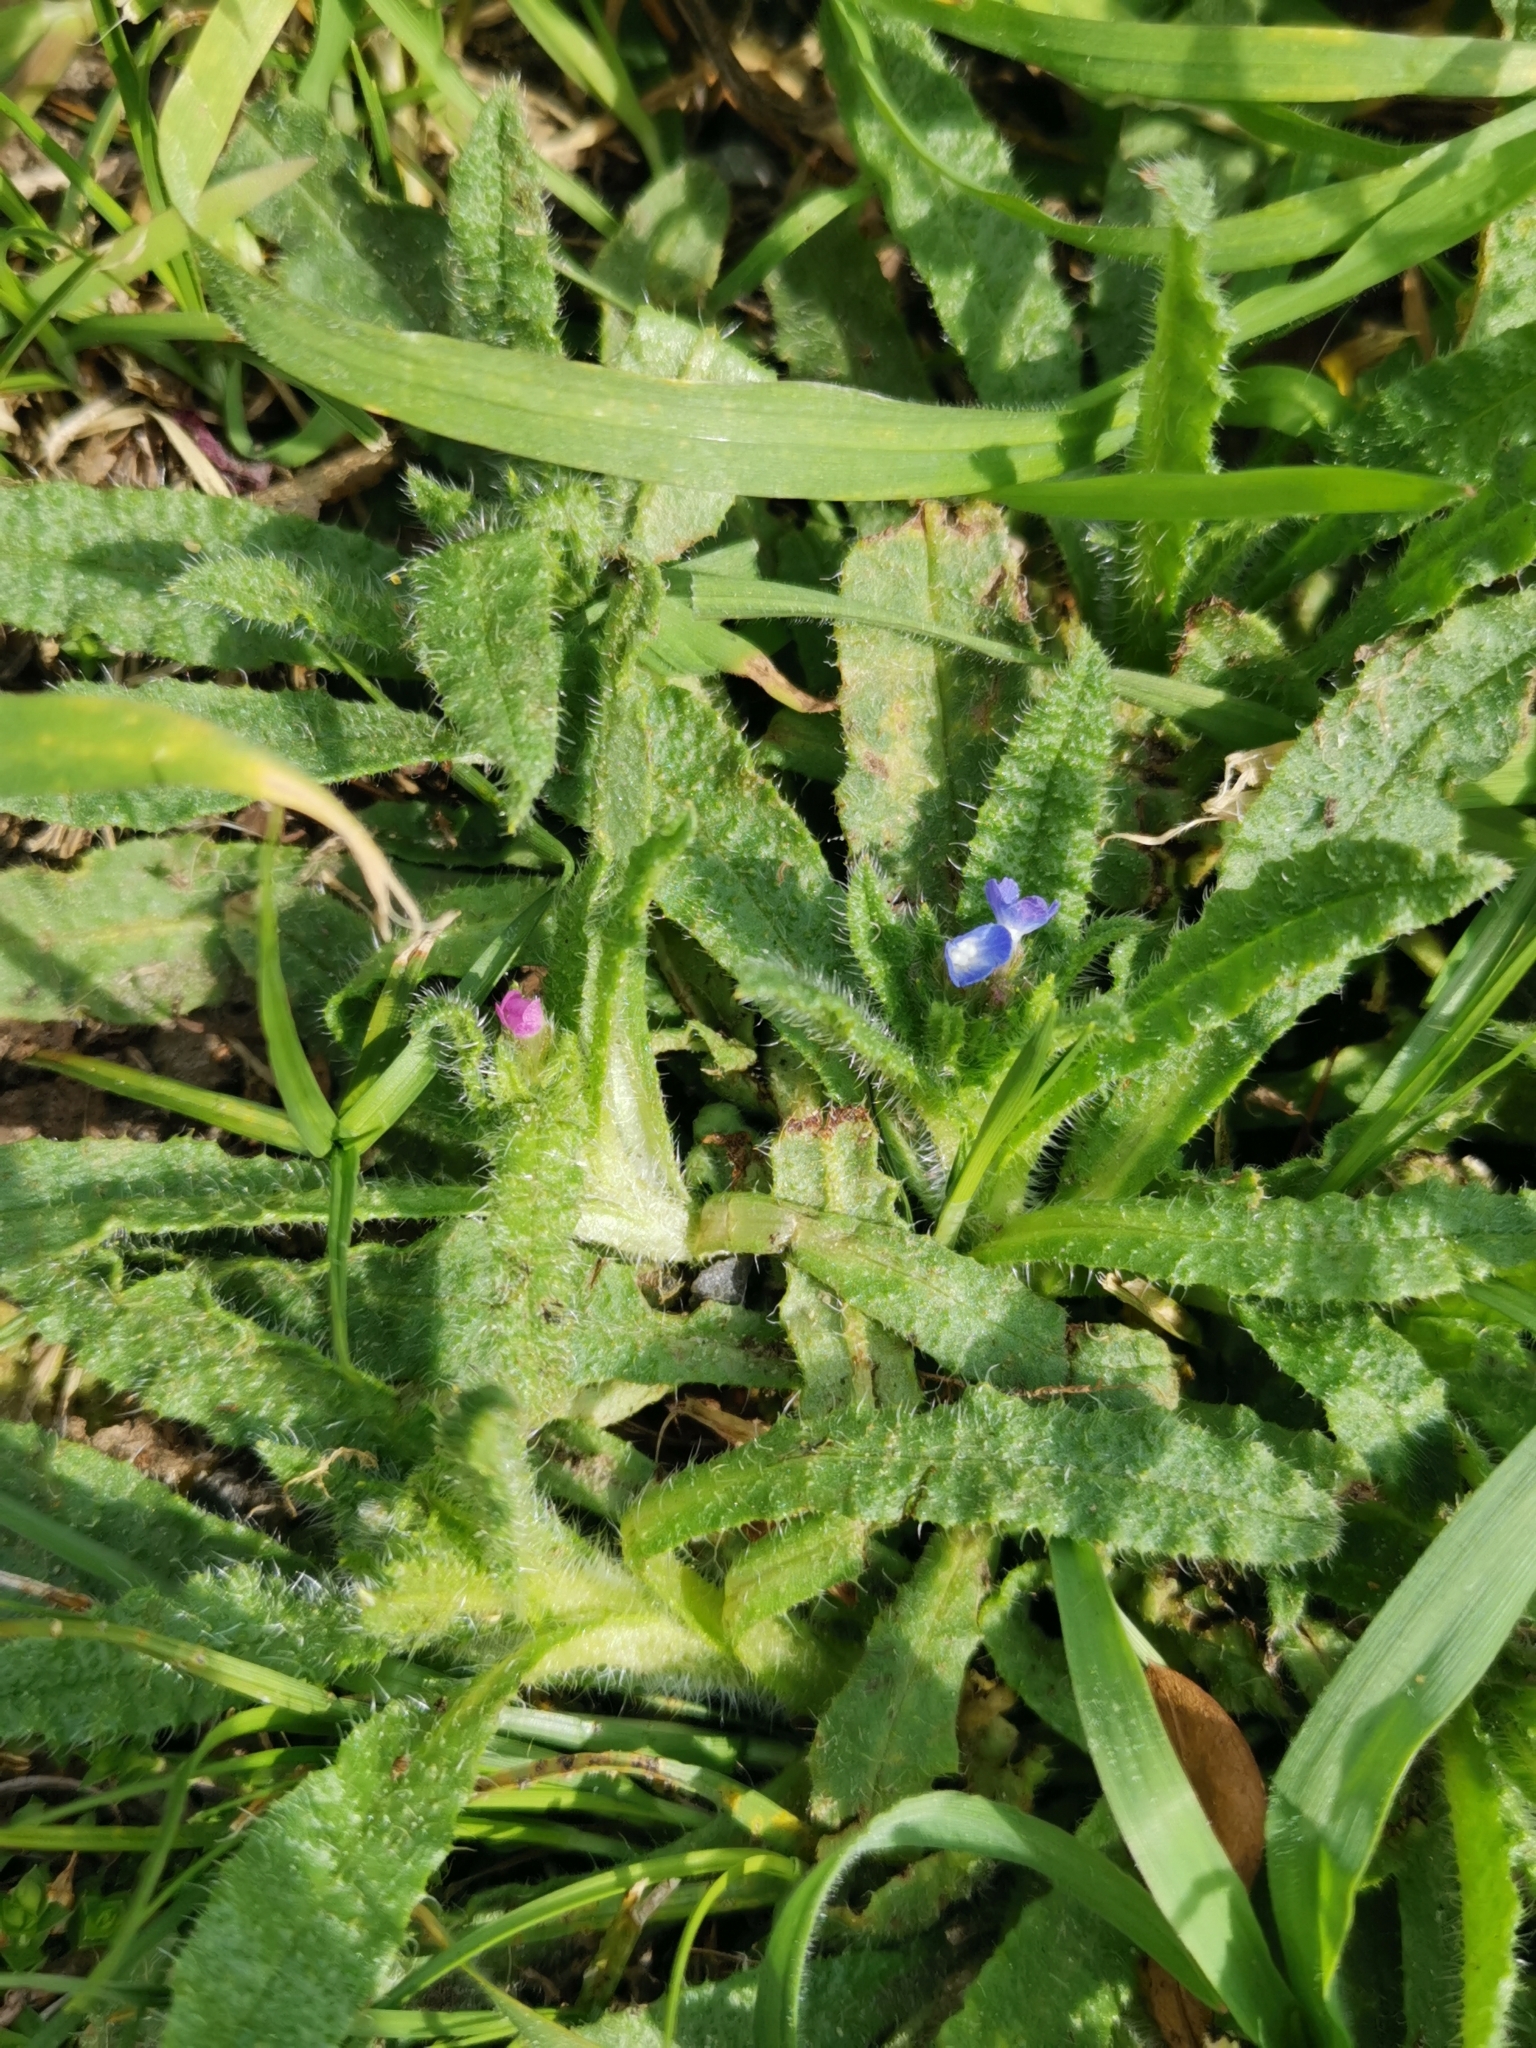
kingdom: Plantae
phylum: Tracheophyta
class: Magnoliopsida
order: Boraginales
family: Boraginaceae
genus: Lycopsis
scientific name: Lycopsis arvensis
